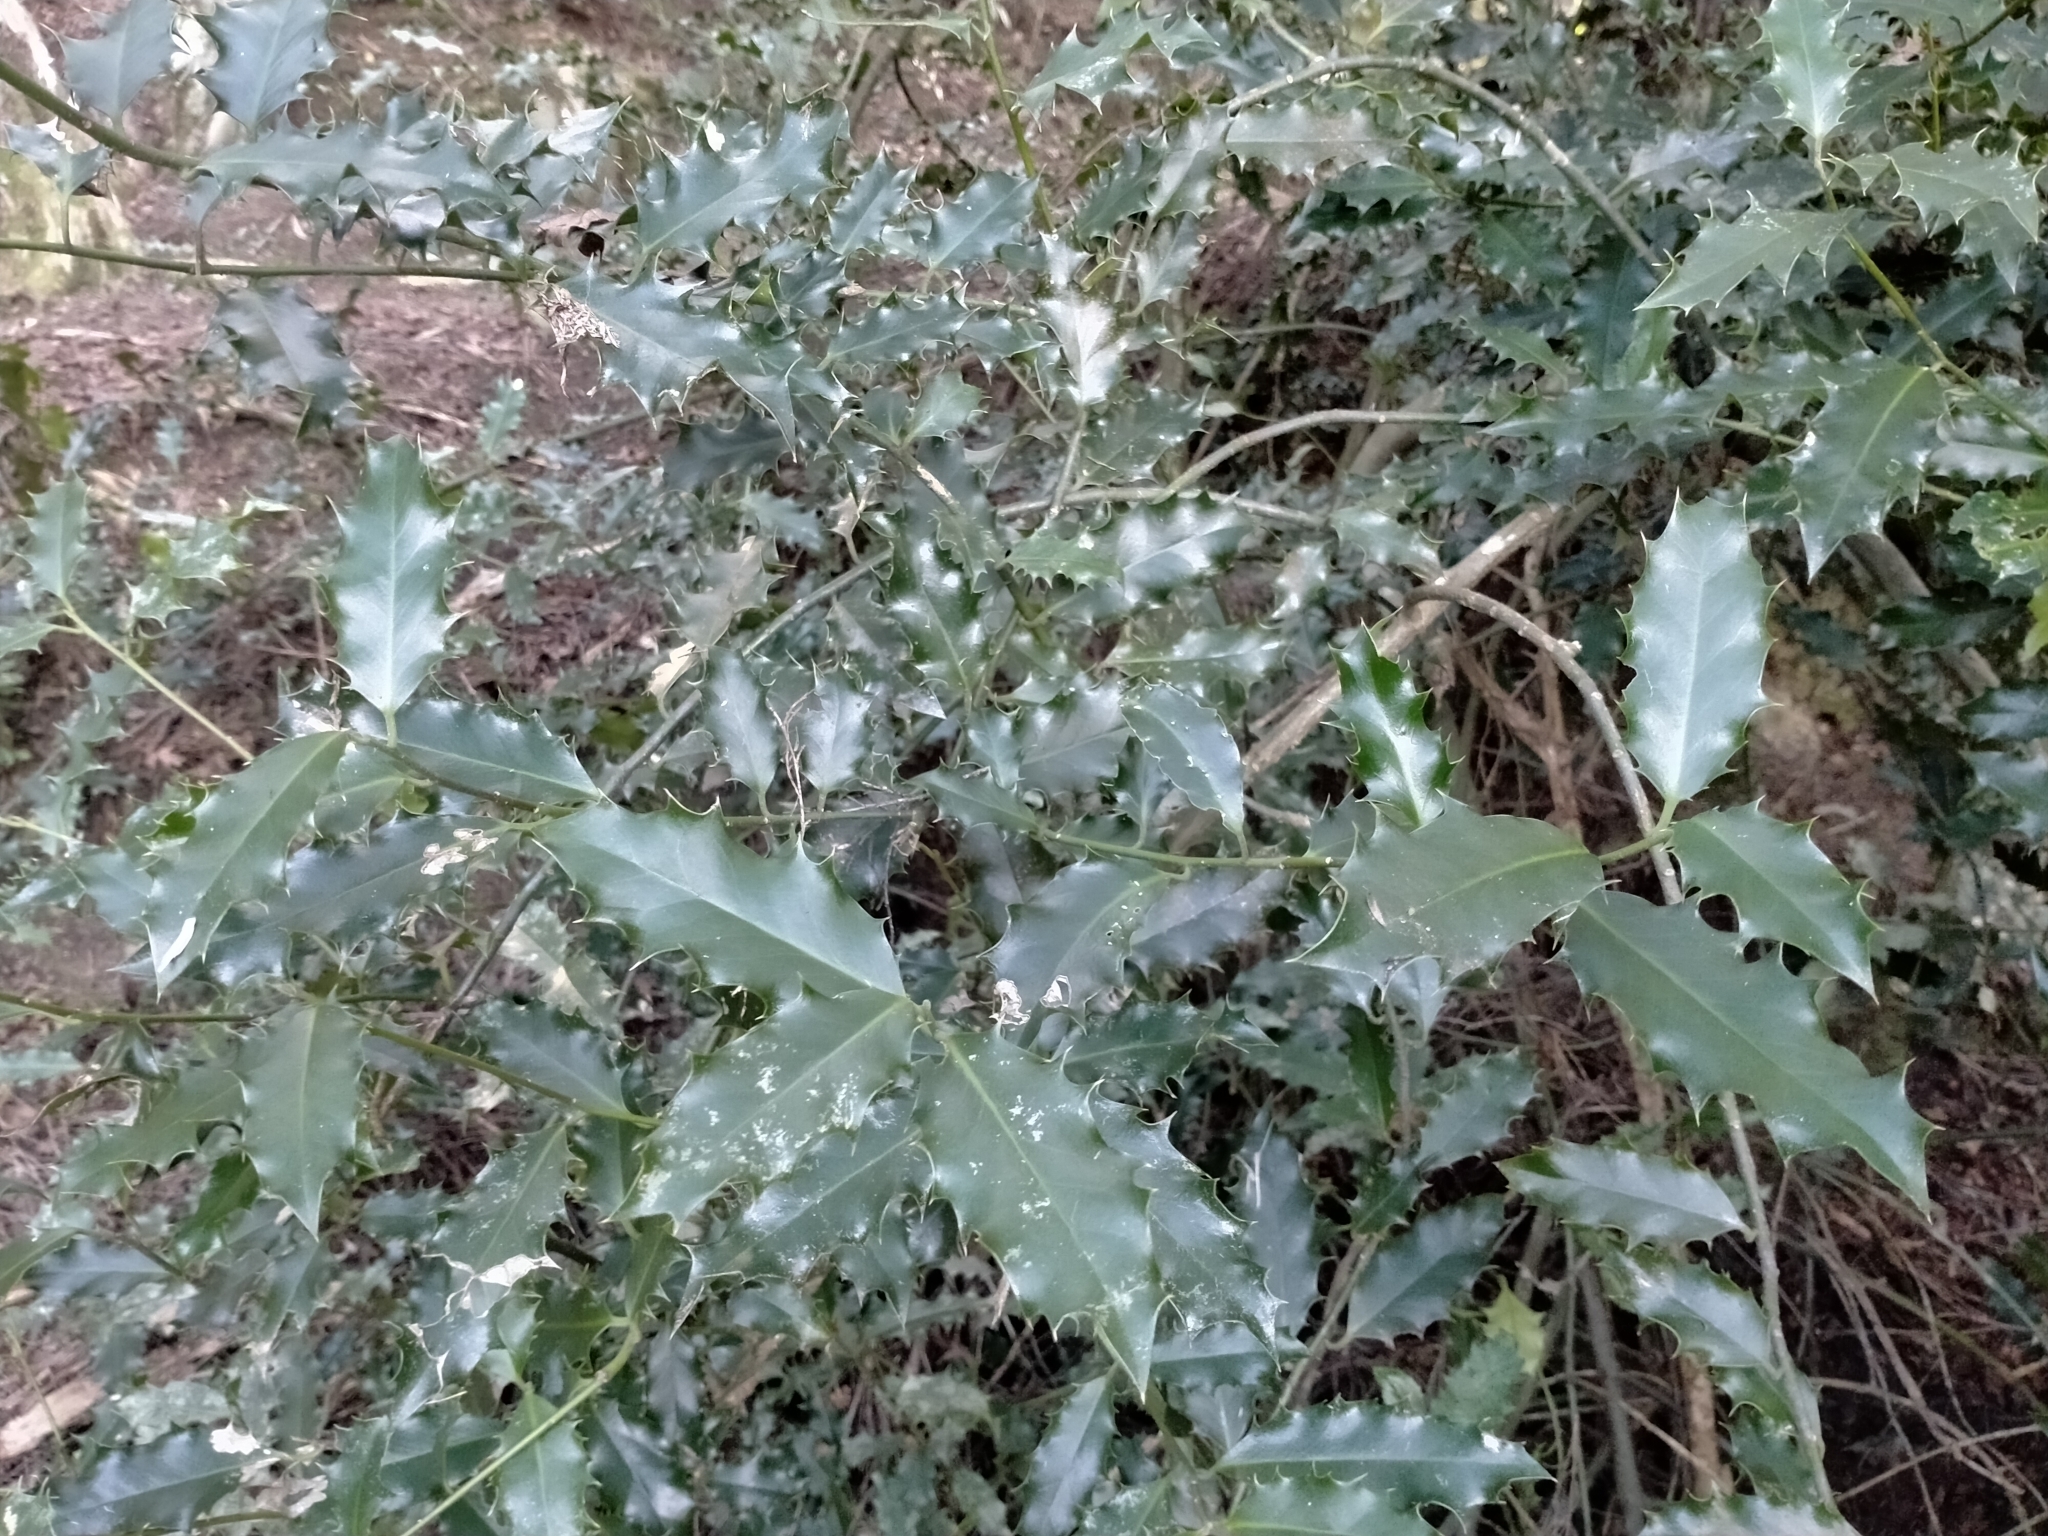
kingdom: Plantae
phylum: Tracheophyta
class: Magnoliopsida
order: Aquifoliales
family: Aquifoliaceae
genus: Ilex
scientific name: Ilex aquifolium
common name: English holly
